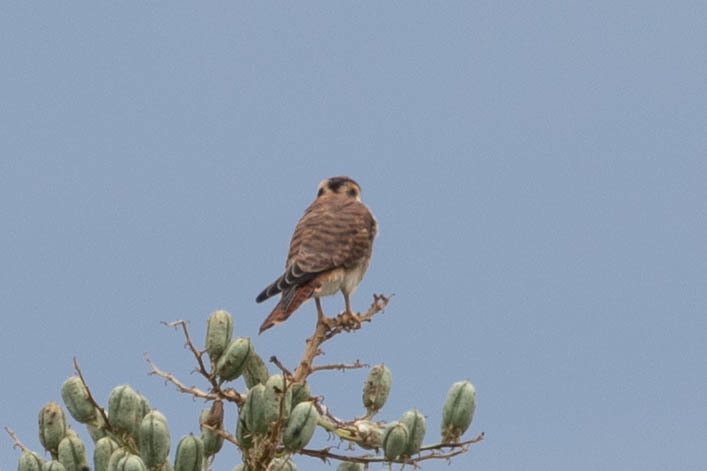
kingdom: Animalia
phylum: Chordata
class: Aves
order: Falconiformes
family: Falconidae
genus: Falco
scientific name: Falco sparverius
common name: American kestrel
